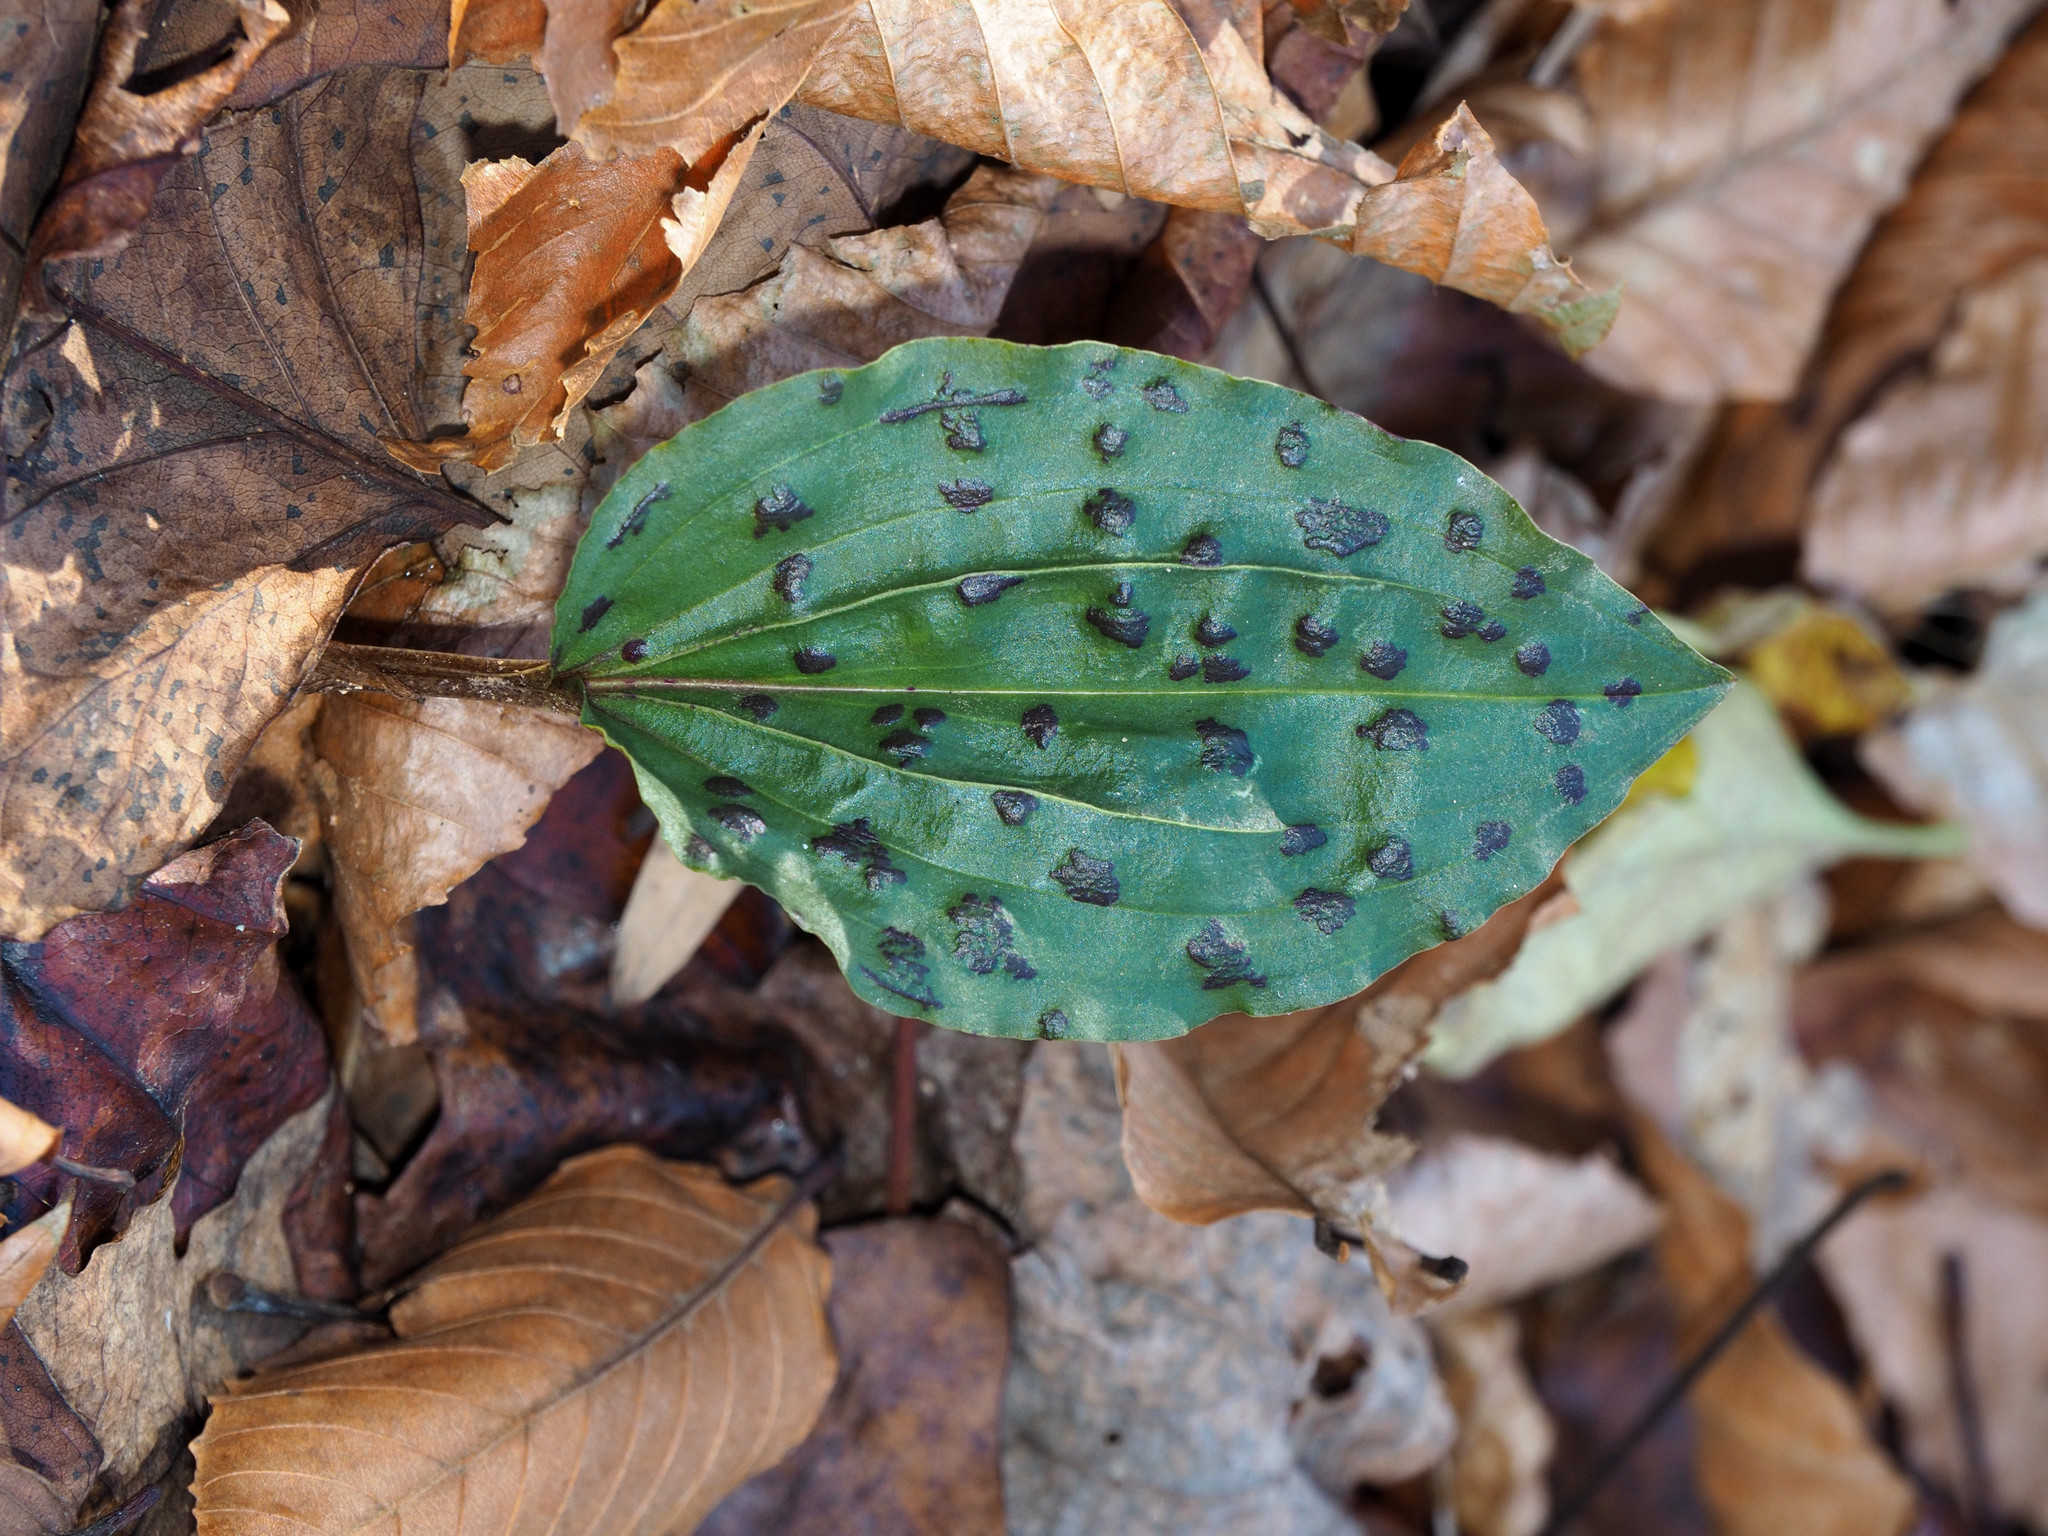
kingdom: Plantae
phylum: Tracheophyta
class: Liliopsida
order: Asparagales
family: Orchidaceae
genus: Tipularia
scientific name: Tipularia discolor
